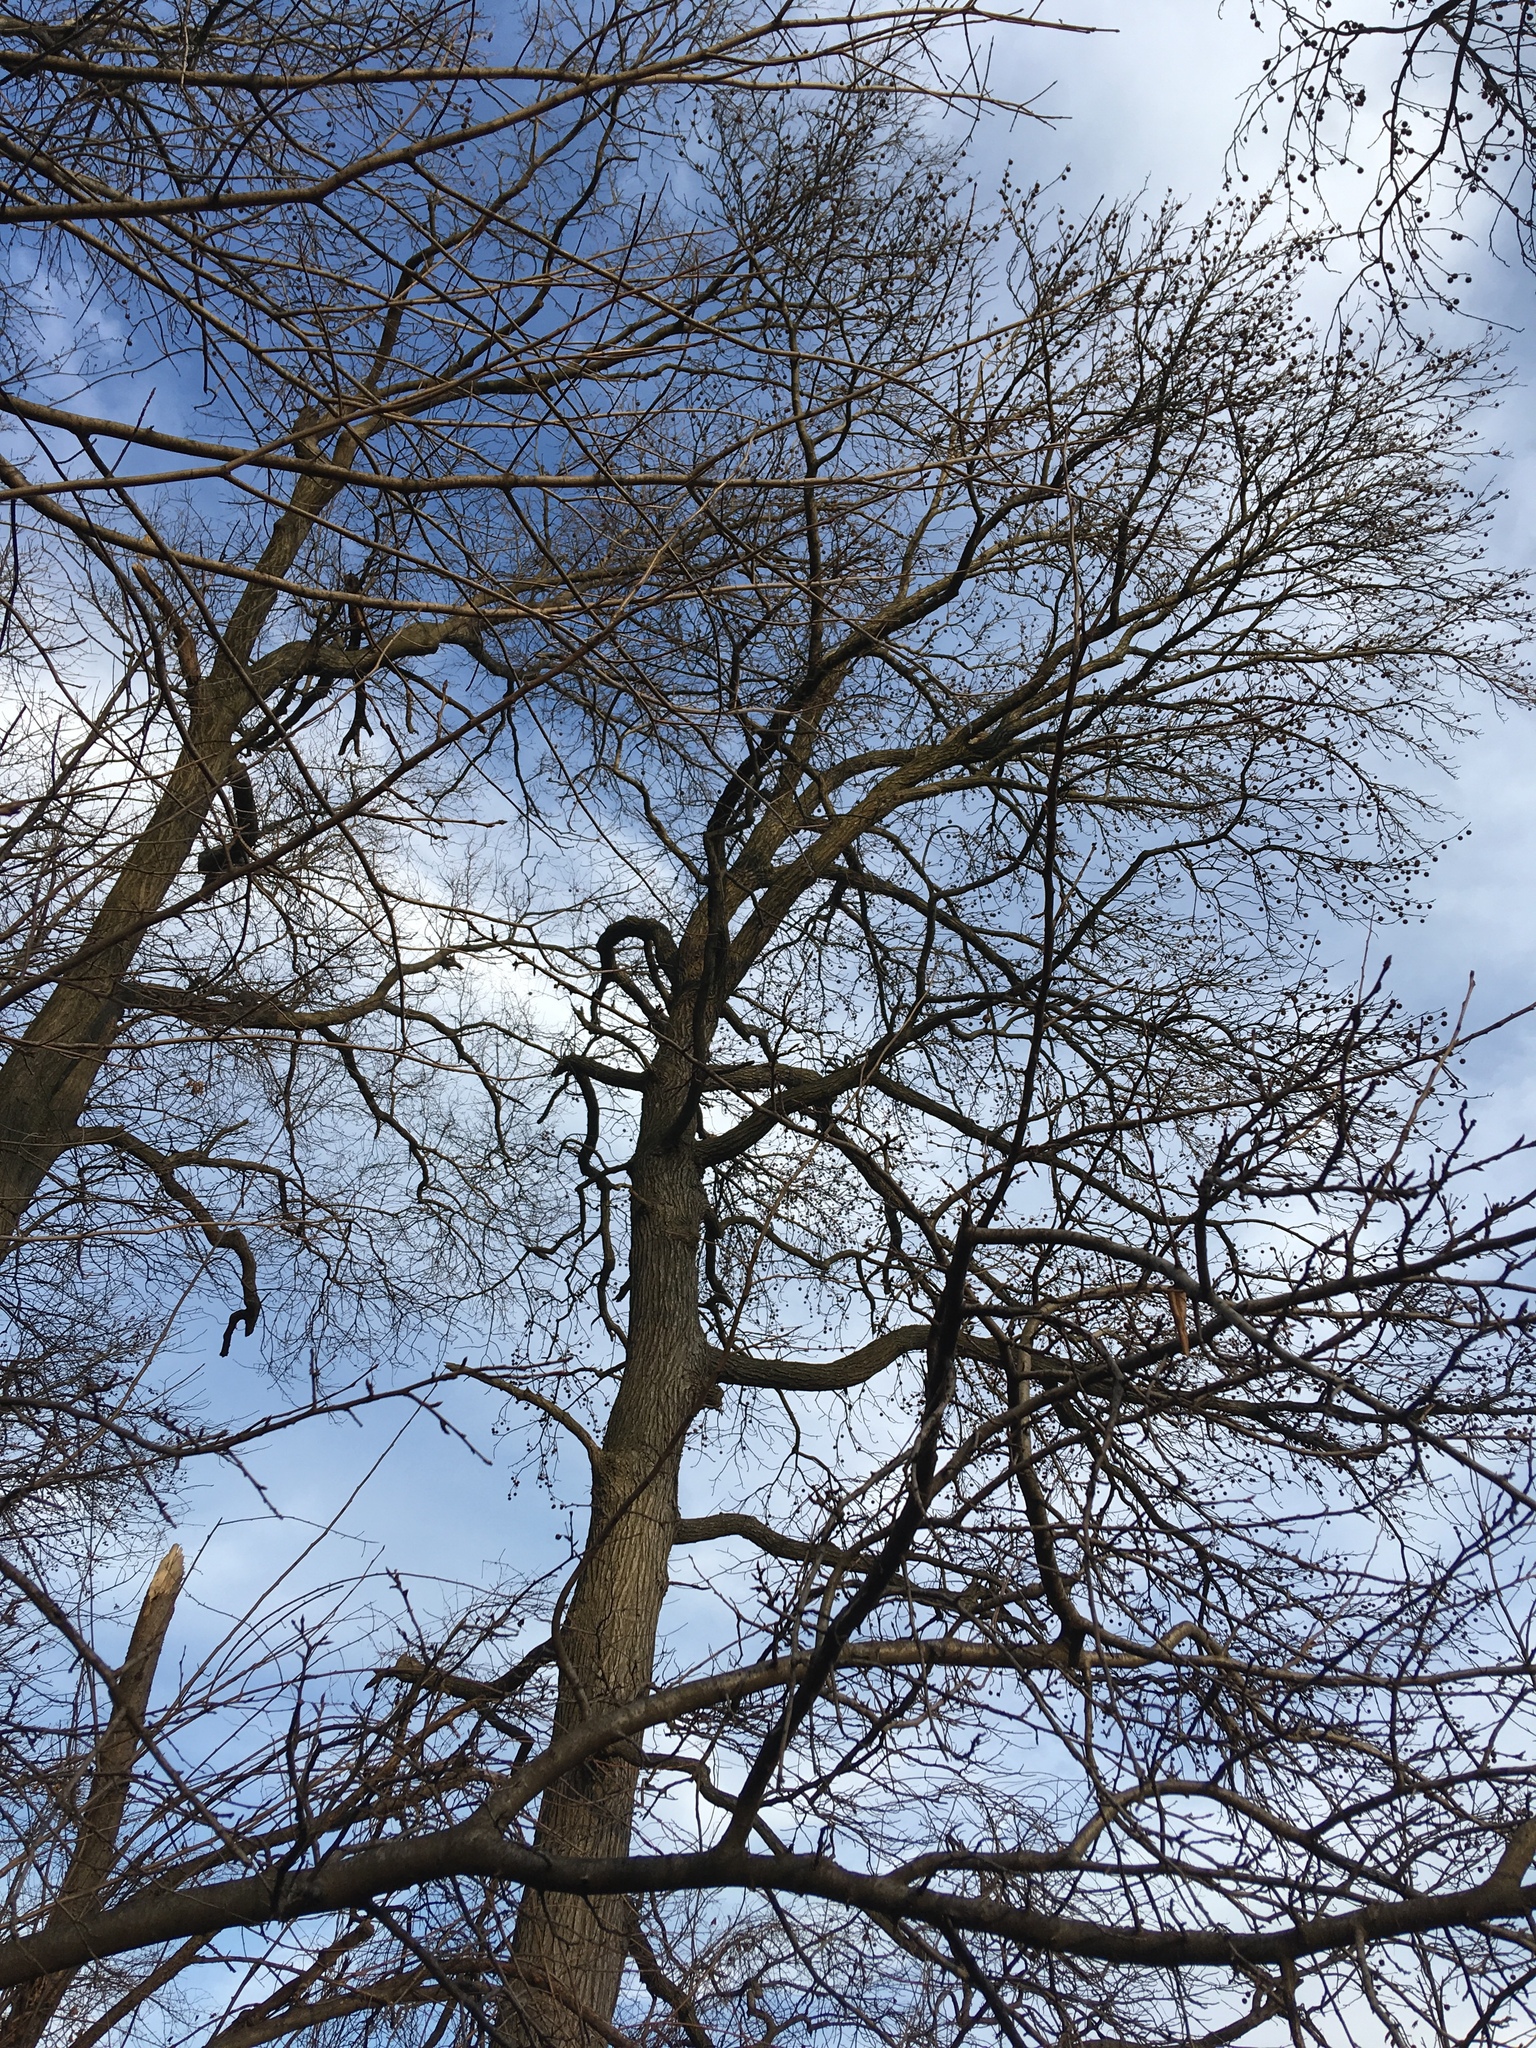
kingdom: Plantae
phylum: Tracheophyta
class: Magnoliopsida
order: Saxifragales
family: Altingiaceae
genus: Liquidambar
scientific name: Liquidambar styraciflua
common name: Sweet gum
